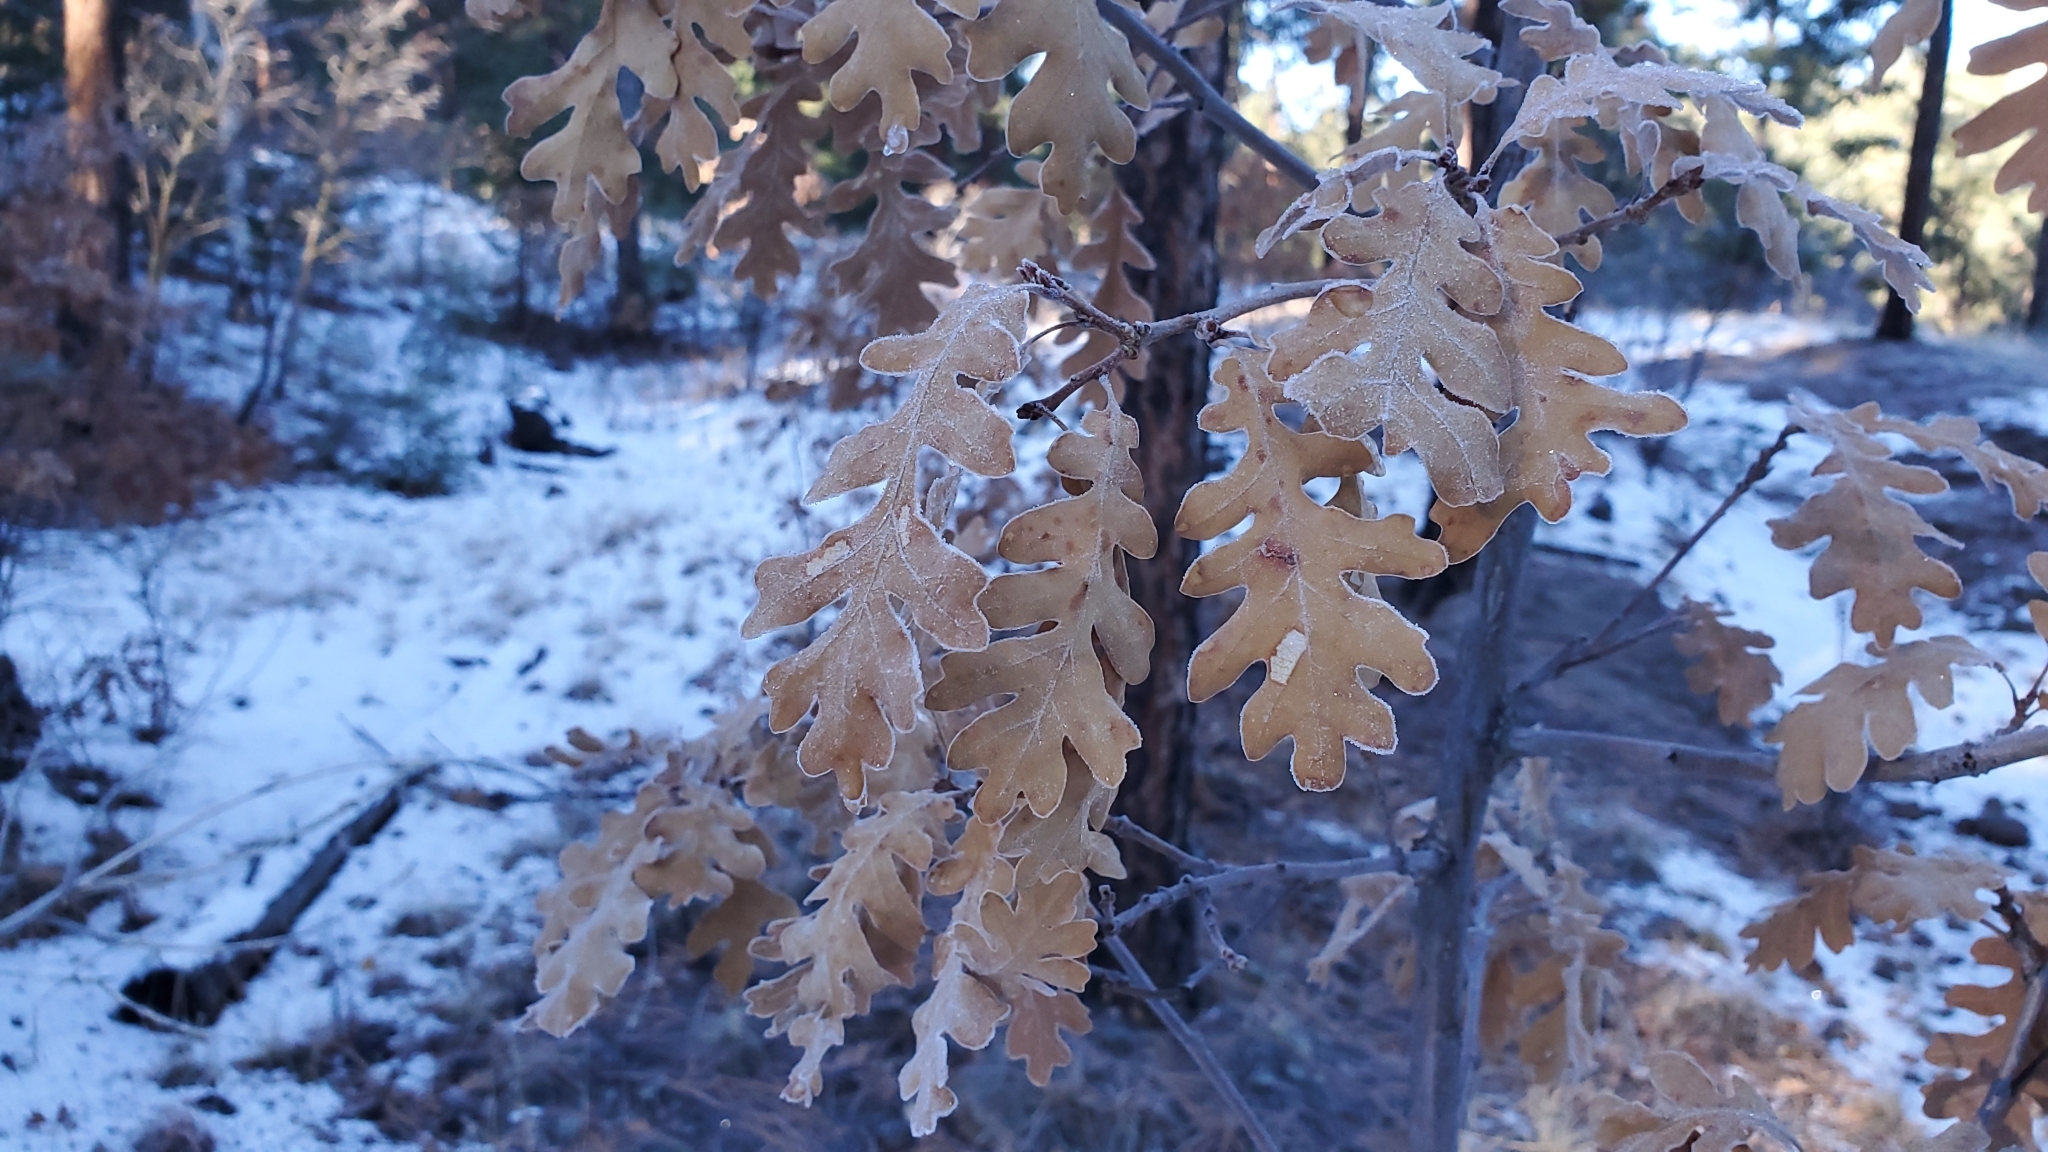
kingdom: Plantae
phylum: Tracheophyta
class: Magnoliopsida
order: Fagales
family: Fagaceae
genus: Quercus
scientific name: Quercus gambelii
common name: Gambel oak
